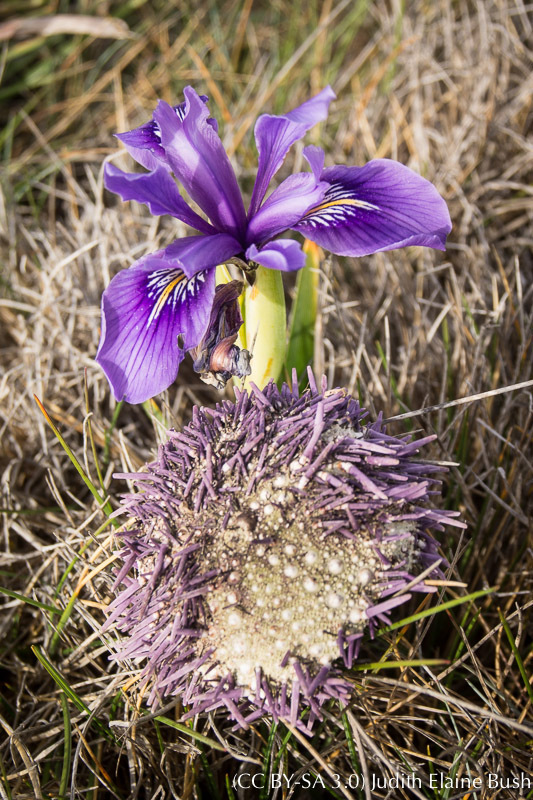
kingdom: Plantae
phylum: Tracheophyta
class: Liliopsida
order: Asparagales
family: Iridaceae
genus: Iris
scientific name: Iris douglasiana
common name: Marin iris
